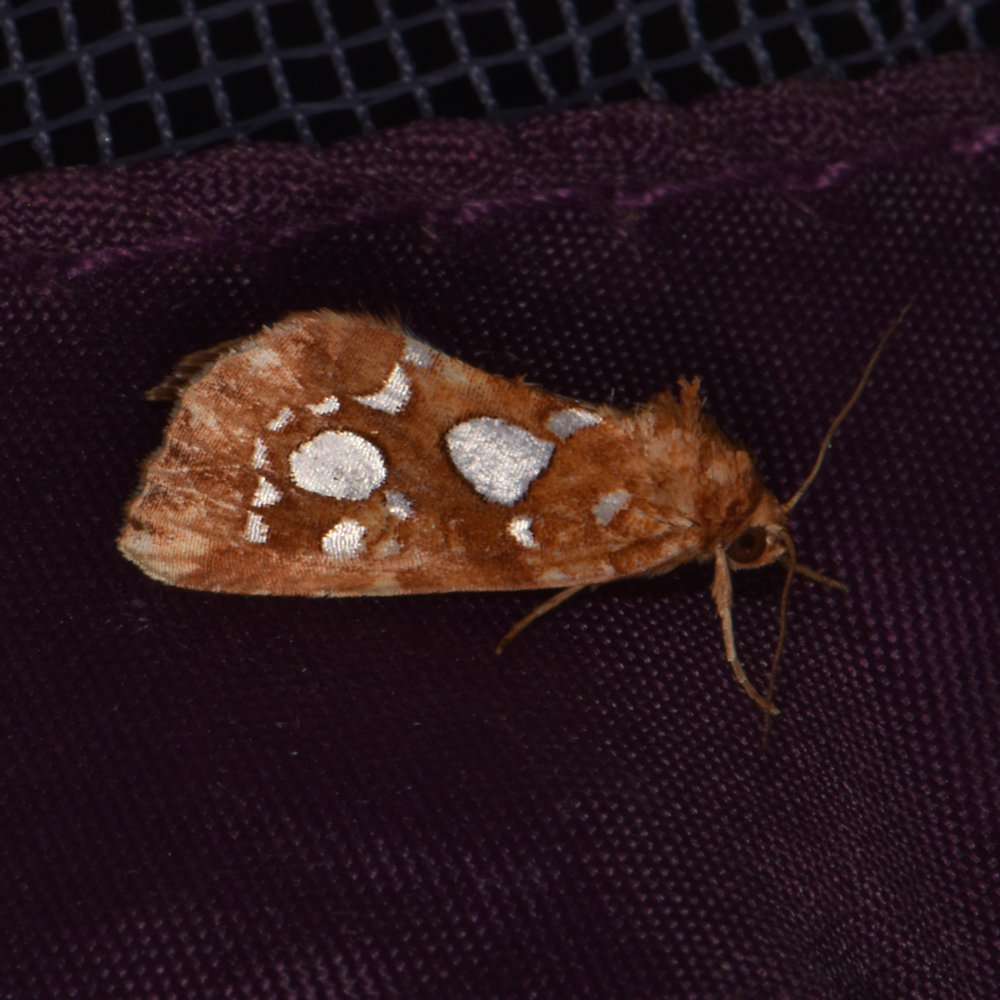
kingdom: Animalia
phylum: Arthropoda
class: Insecta
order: Lepidoptera
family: Noctuidae
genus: Callopistria
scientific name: Callopistria cordata
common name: Silver-spotted fern moth
